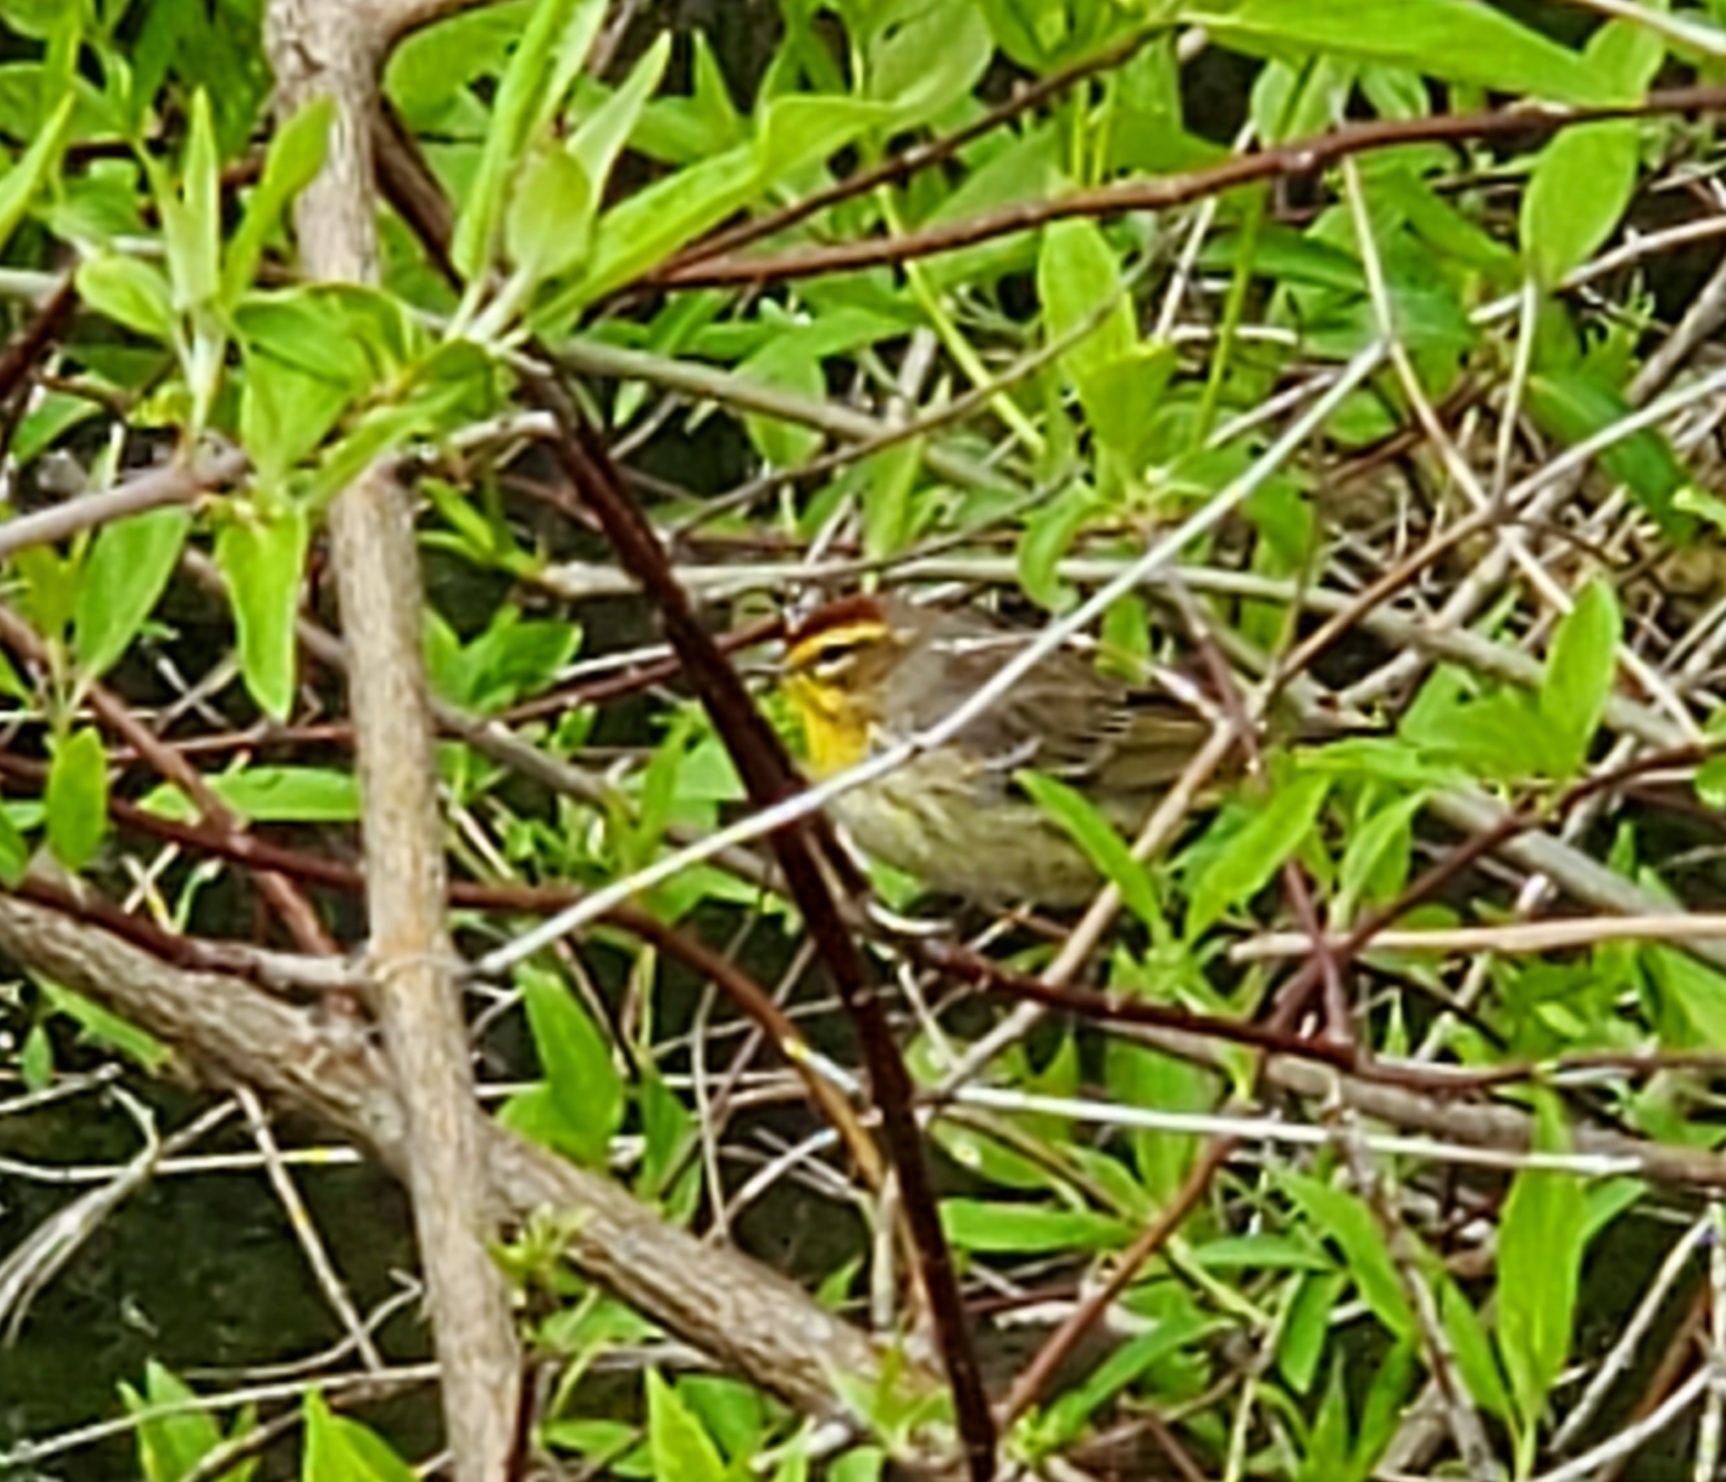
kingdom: Animalia
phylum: Chordata
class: Aves
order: Passeriformes
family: Parulidae
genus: Setophaga
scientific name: Setophaga palmarum
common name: Palm warbler
